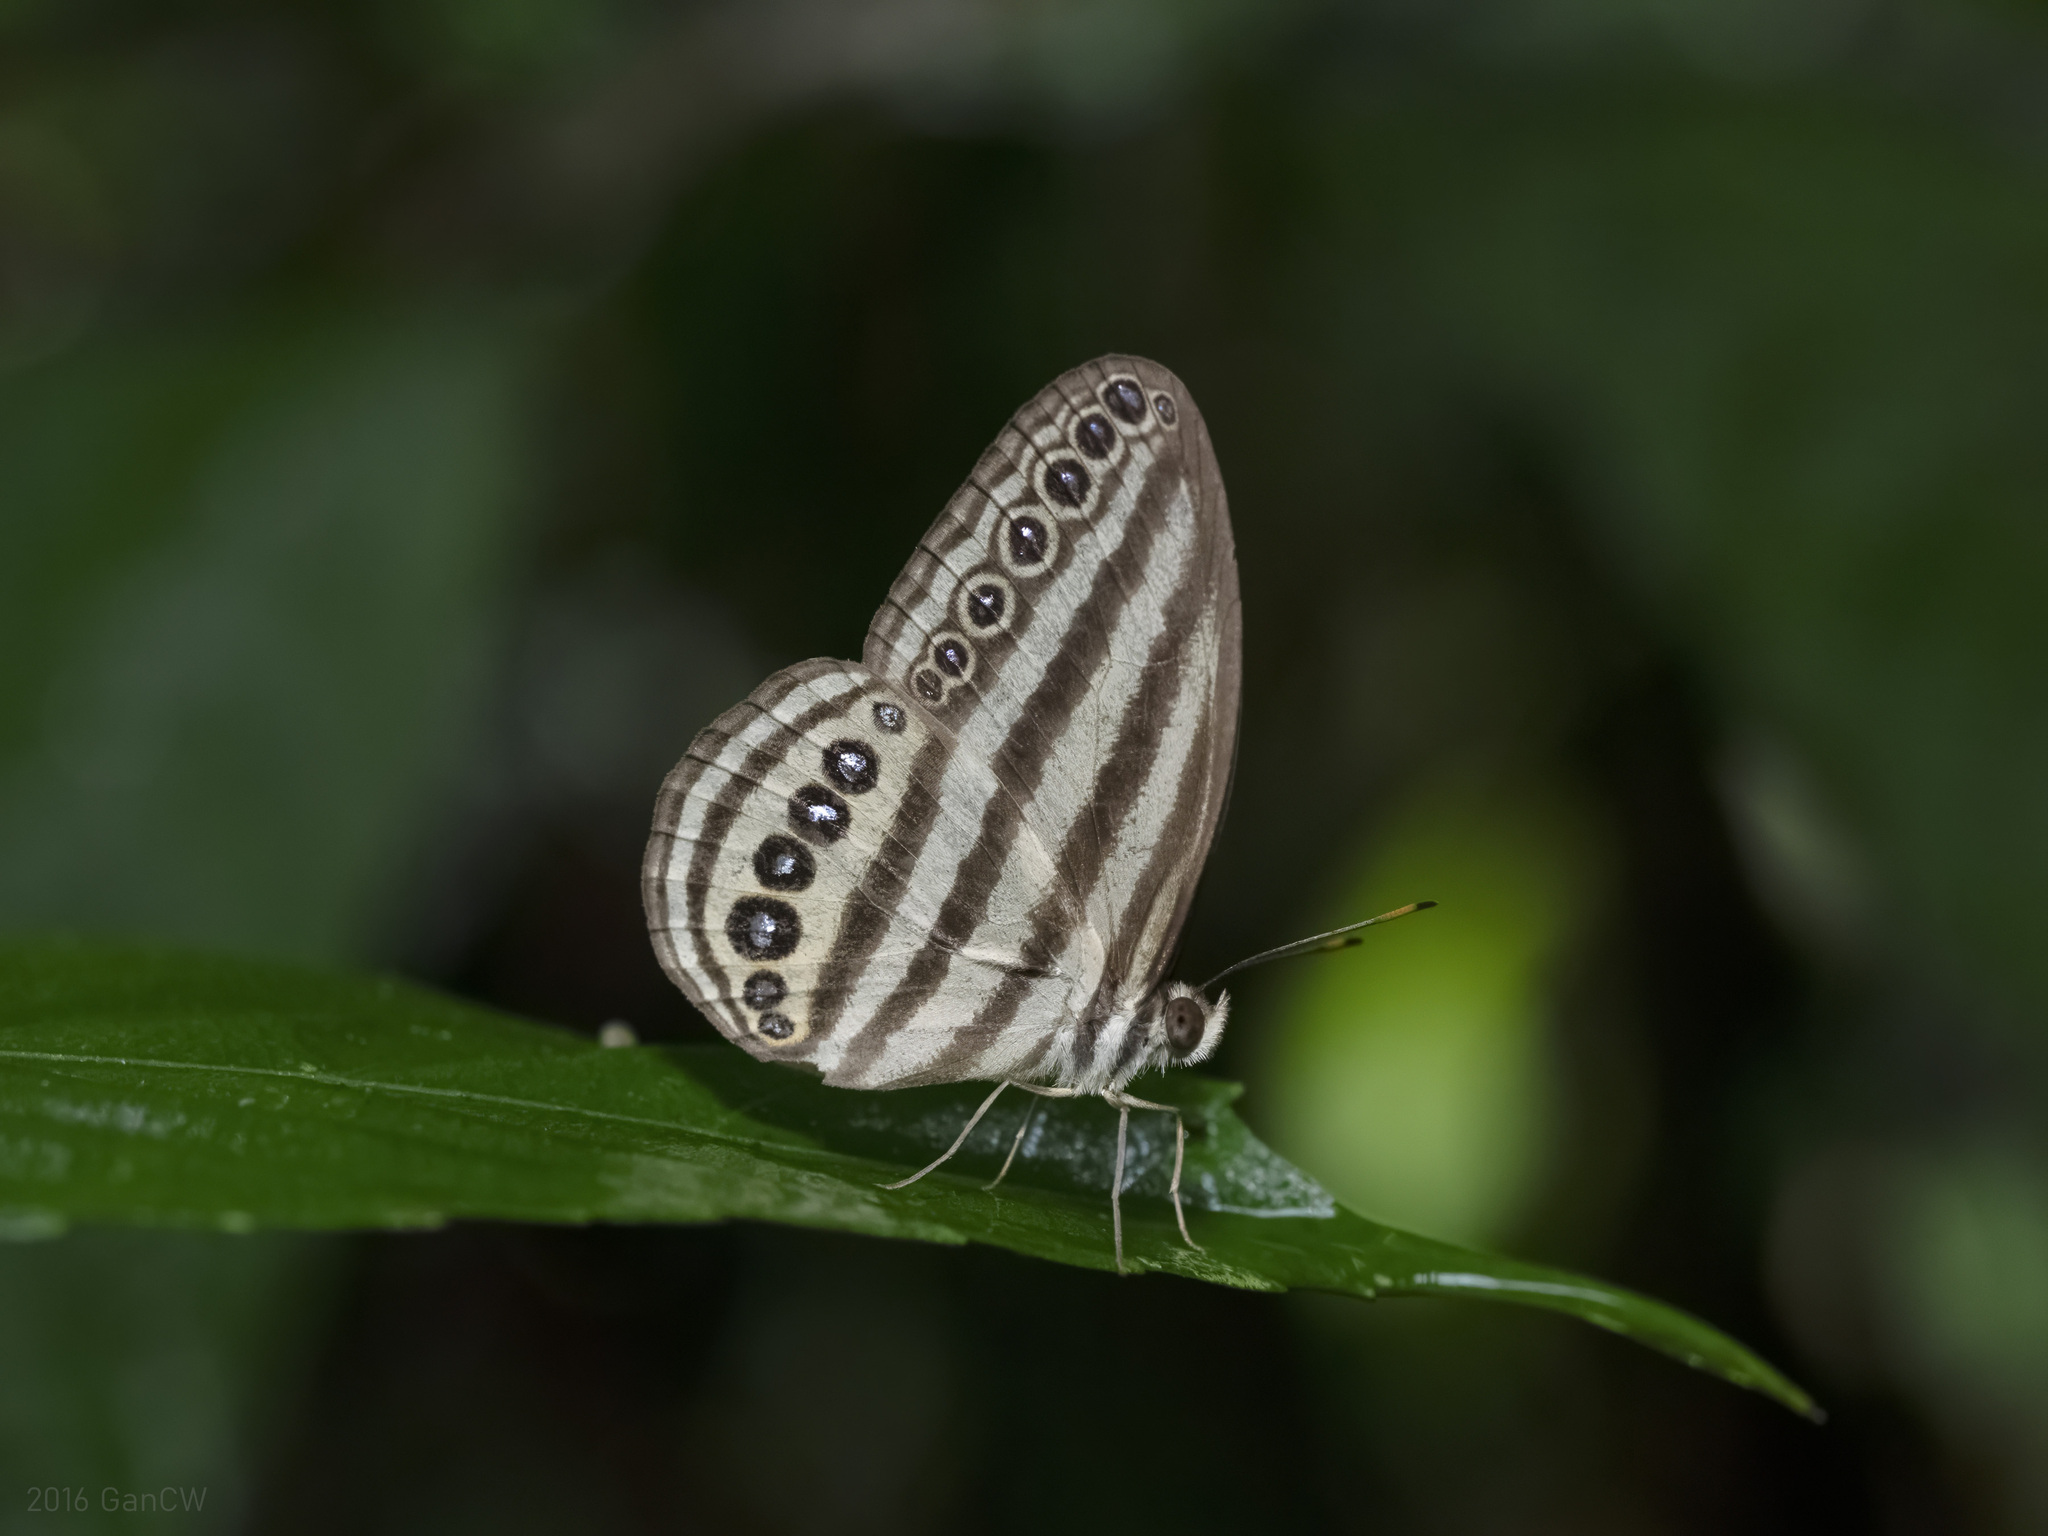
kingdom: Animalia
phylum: Arthropoda
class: Insecta
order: Lepidoptera
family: Nymphalidae
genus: Ragadia
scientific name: Ragadia makuta
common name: Striped ringlet
